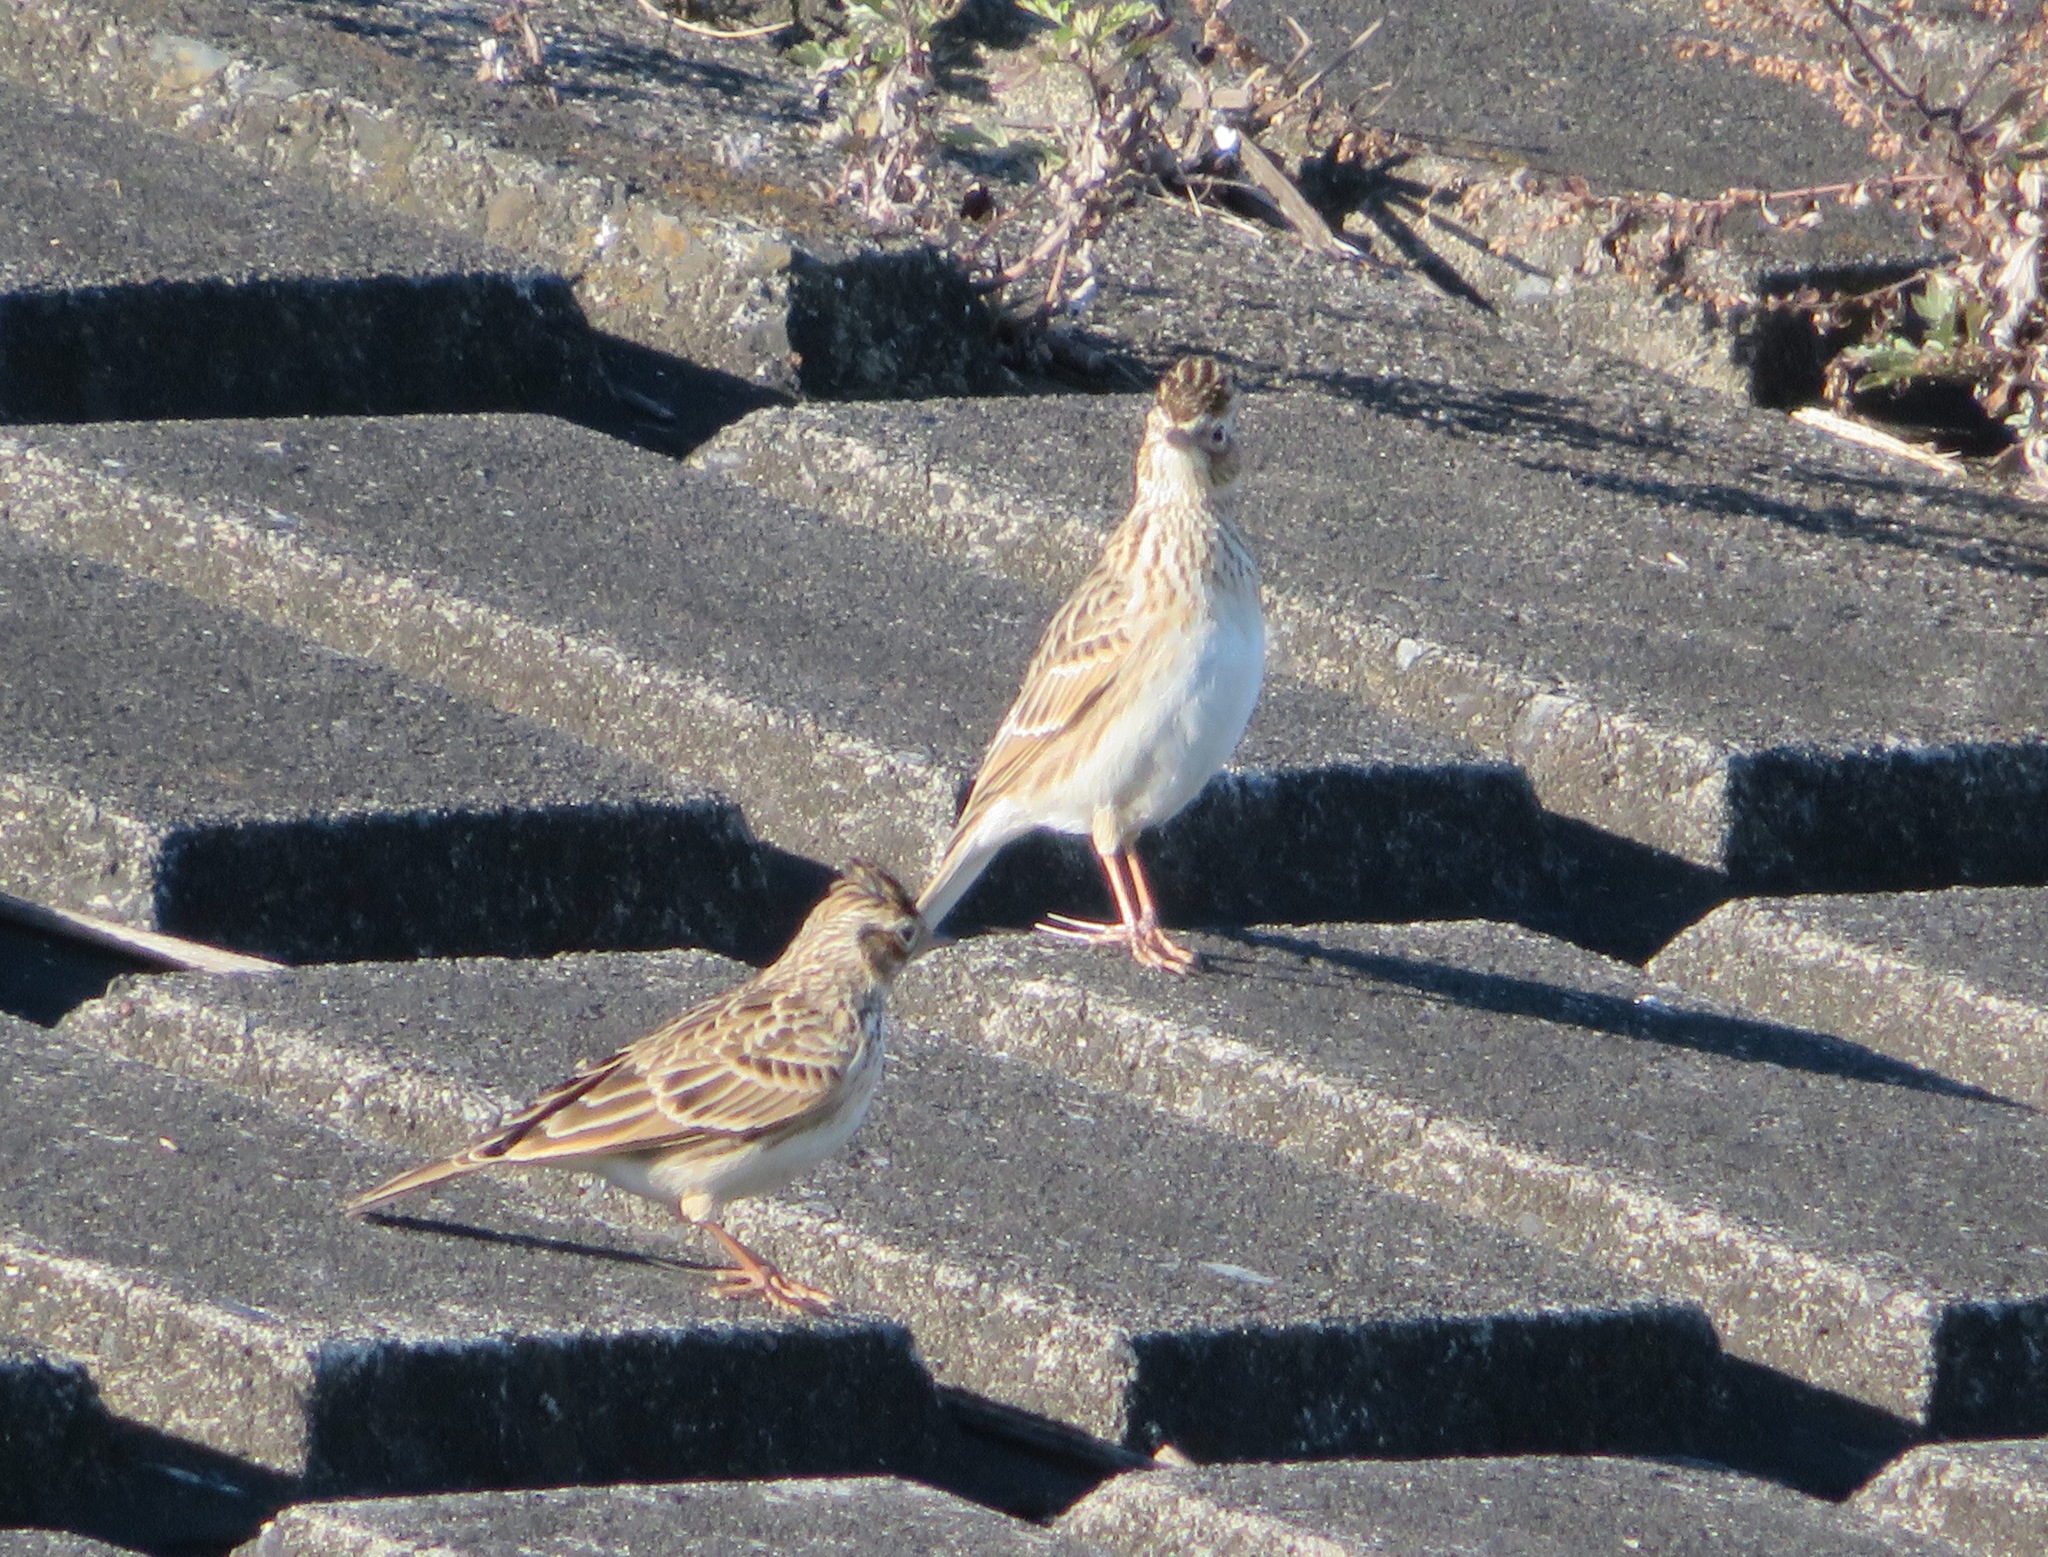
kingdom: Animalia
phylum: Chordata
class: Aves
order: Passeriformes
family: Alaudidae
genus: Alauda
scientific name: Alauda arvensis
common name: Eurasian skylark
